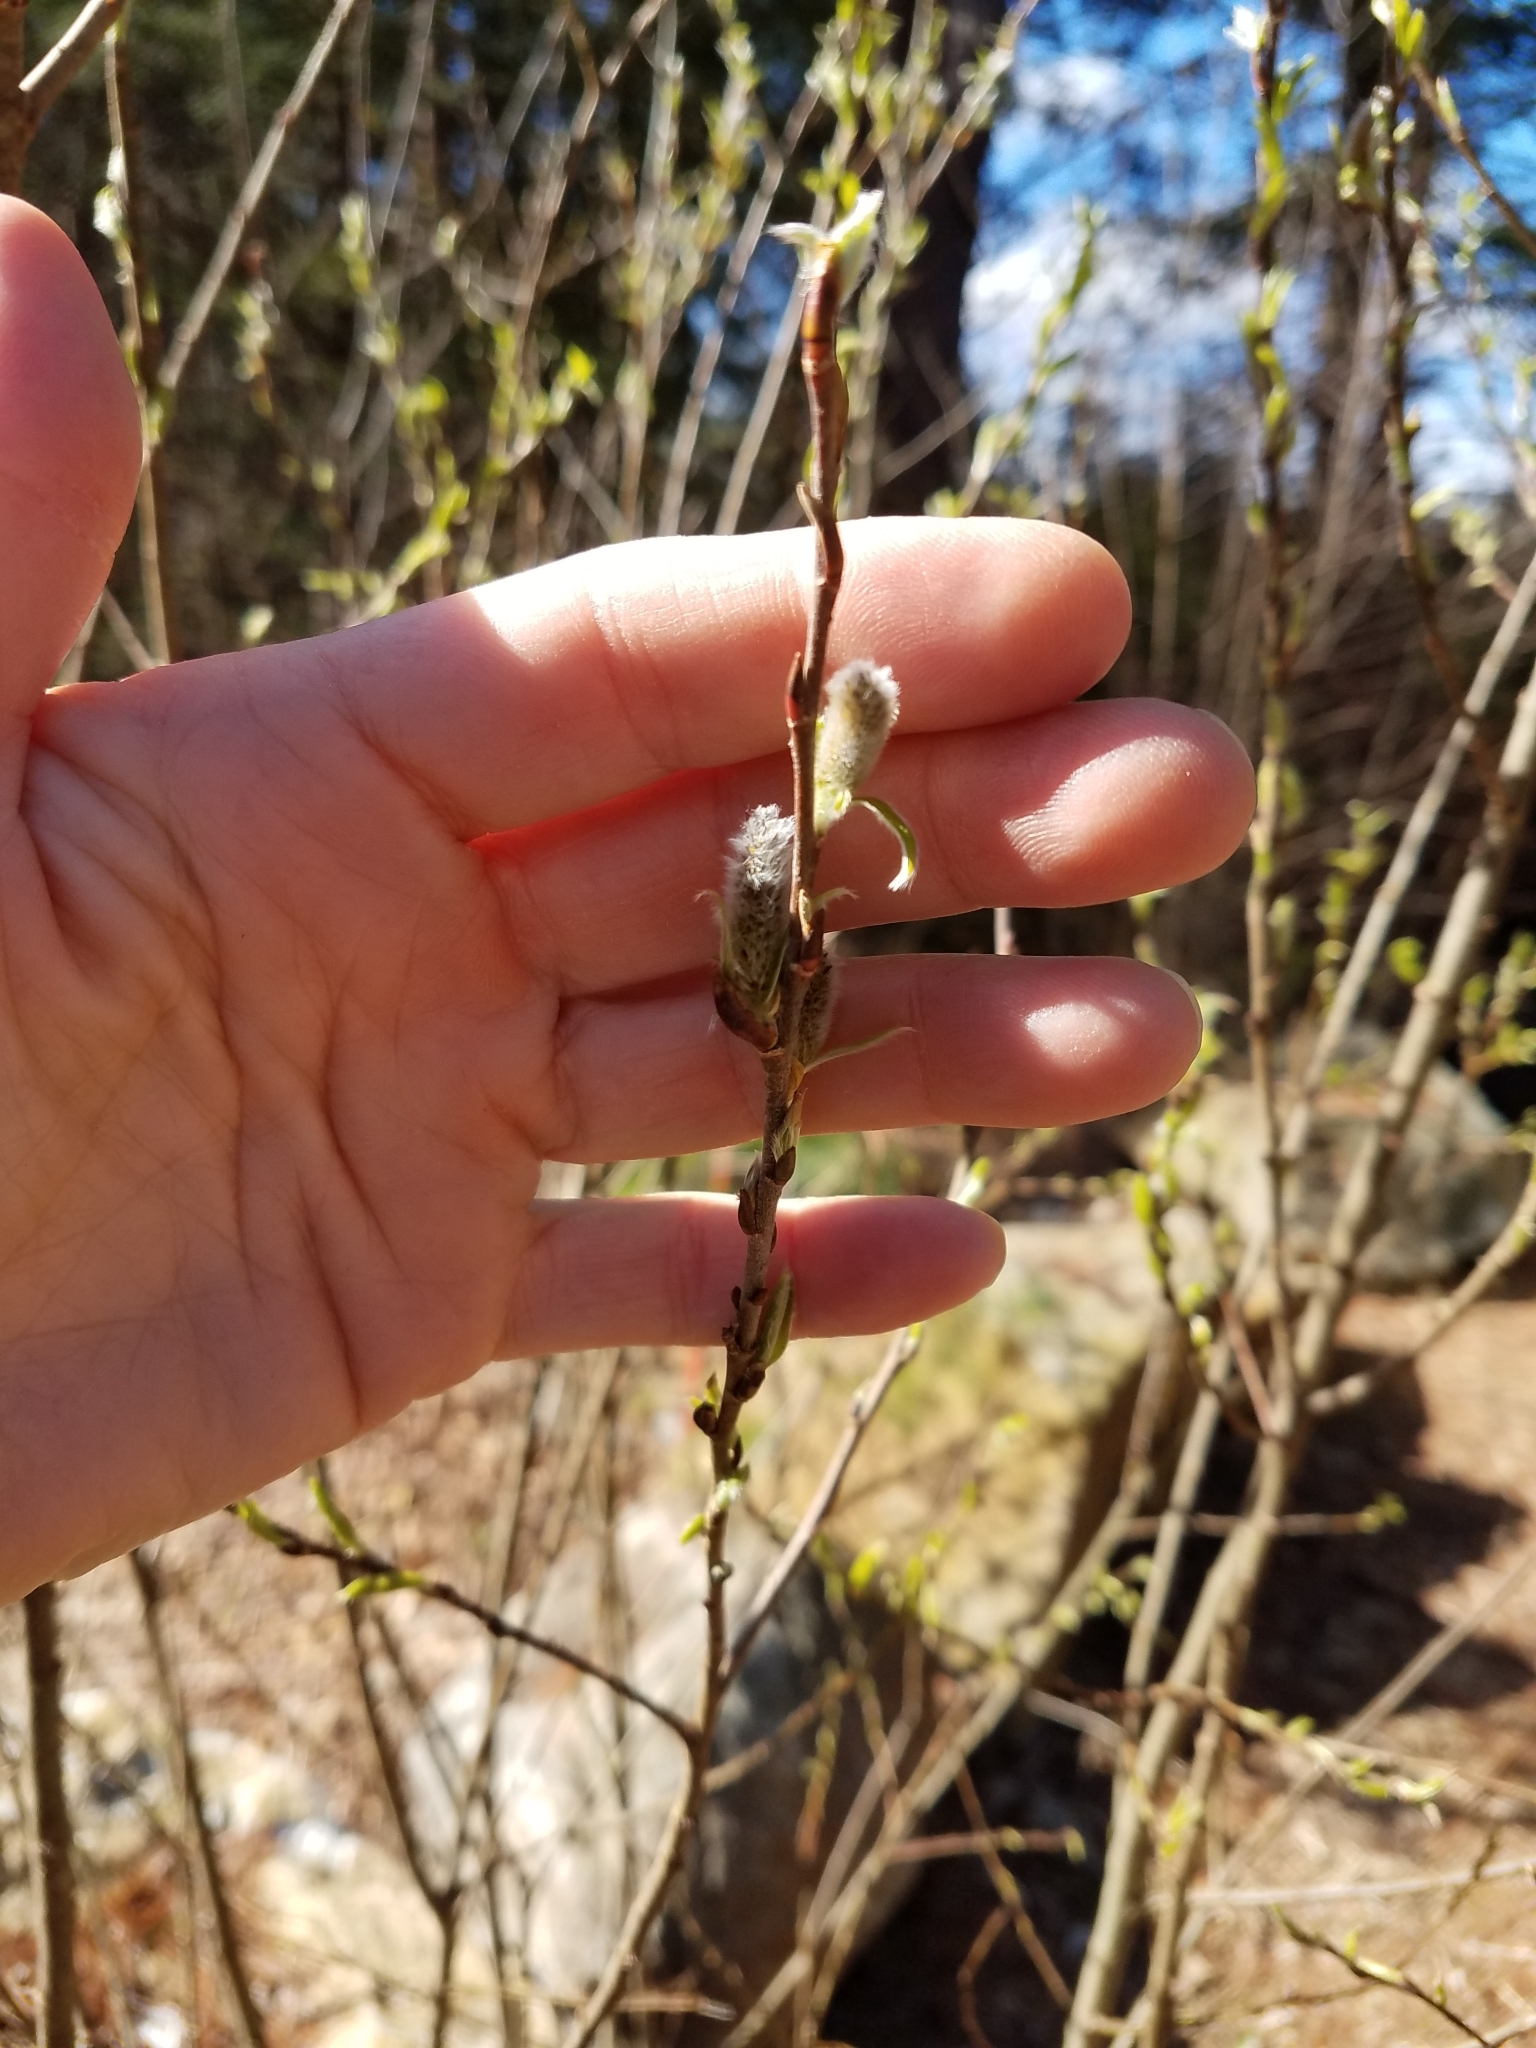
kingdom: Plantae
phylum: Tracheophyta
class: Magnoliopsida
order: Malpighiales
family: Salicaceae
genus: Salix
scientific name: Salix
